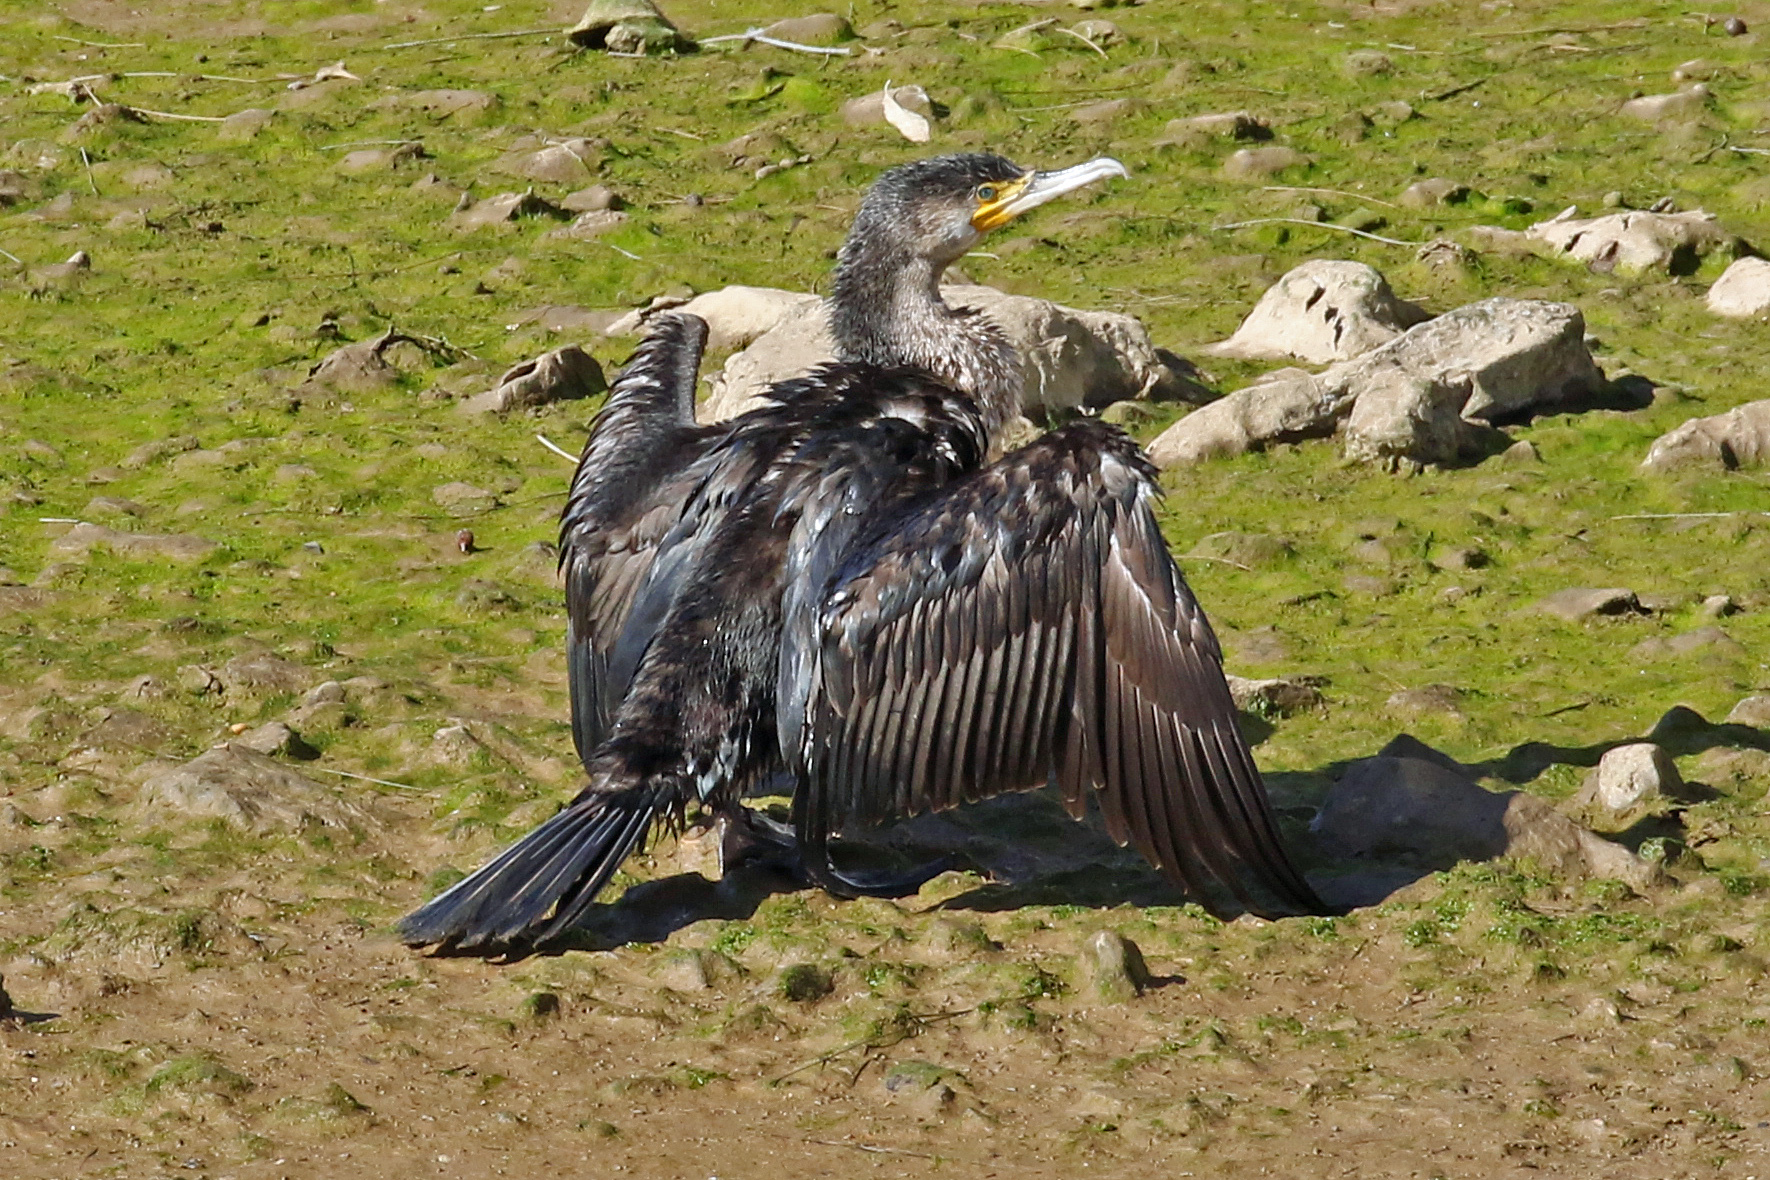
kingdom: Animalia
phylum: Chordata
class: Aves
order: Suliformes
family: Phalacrocoracidae
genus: Phalacrocorax
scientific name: Phalacrocorax carbo
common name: Great cormorant
